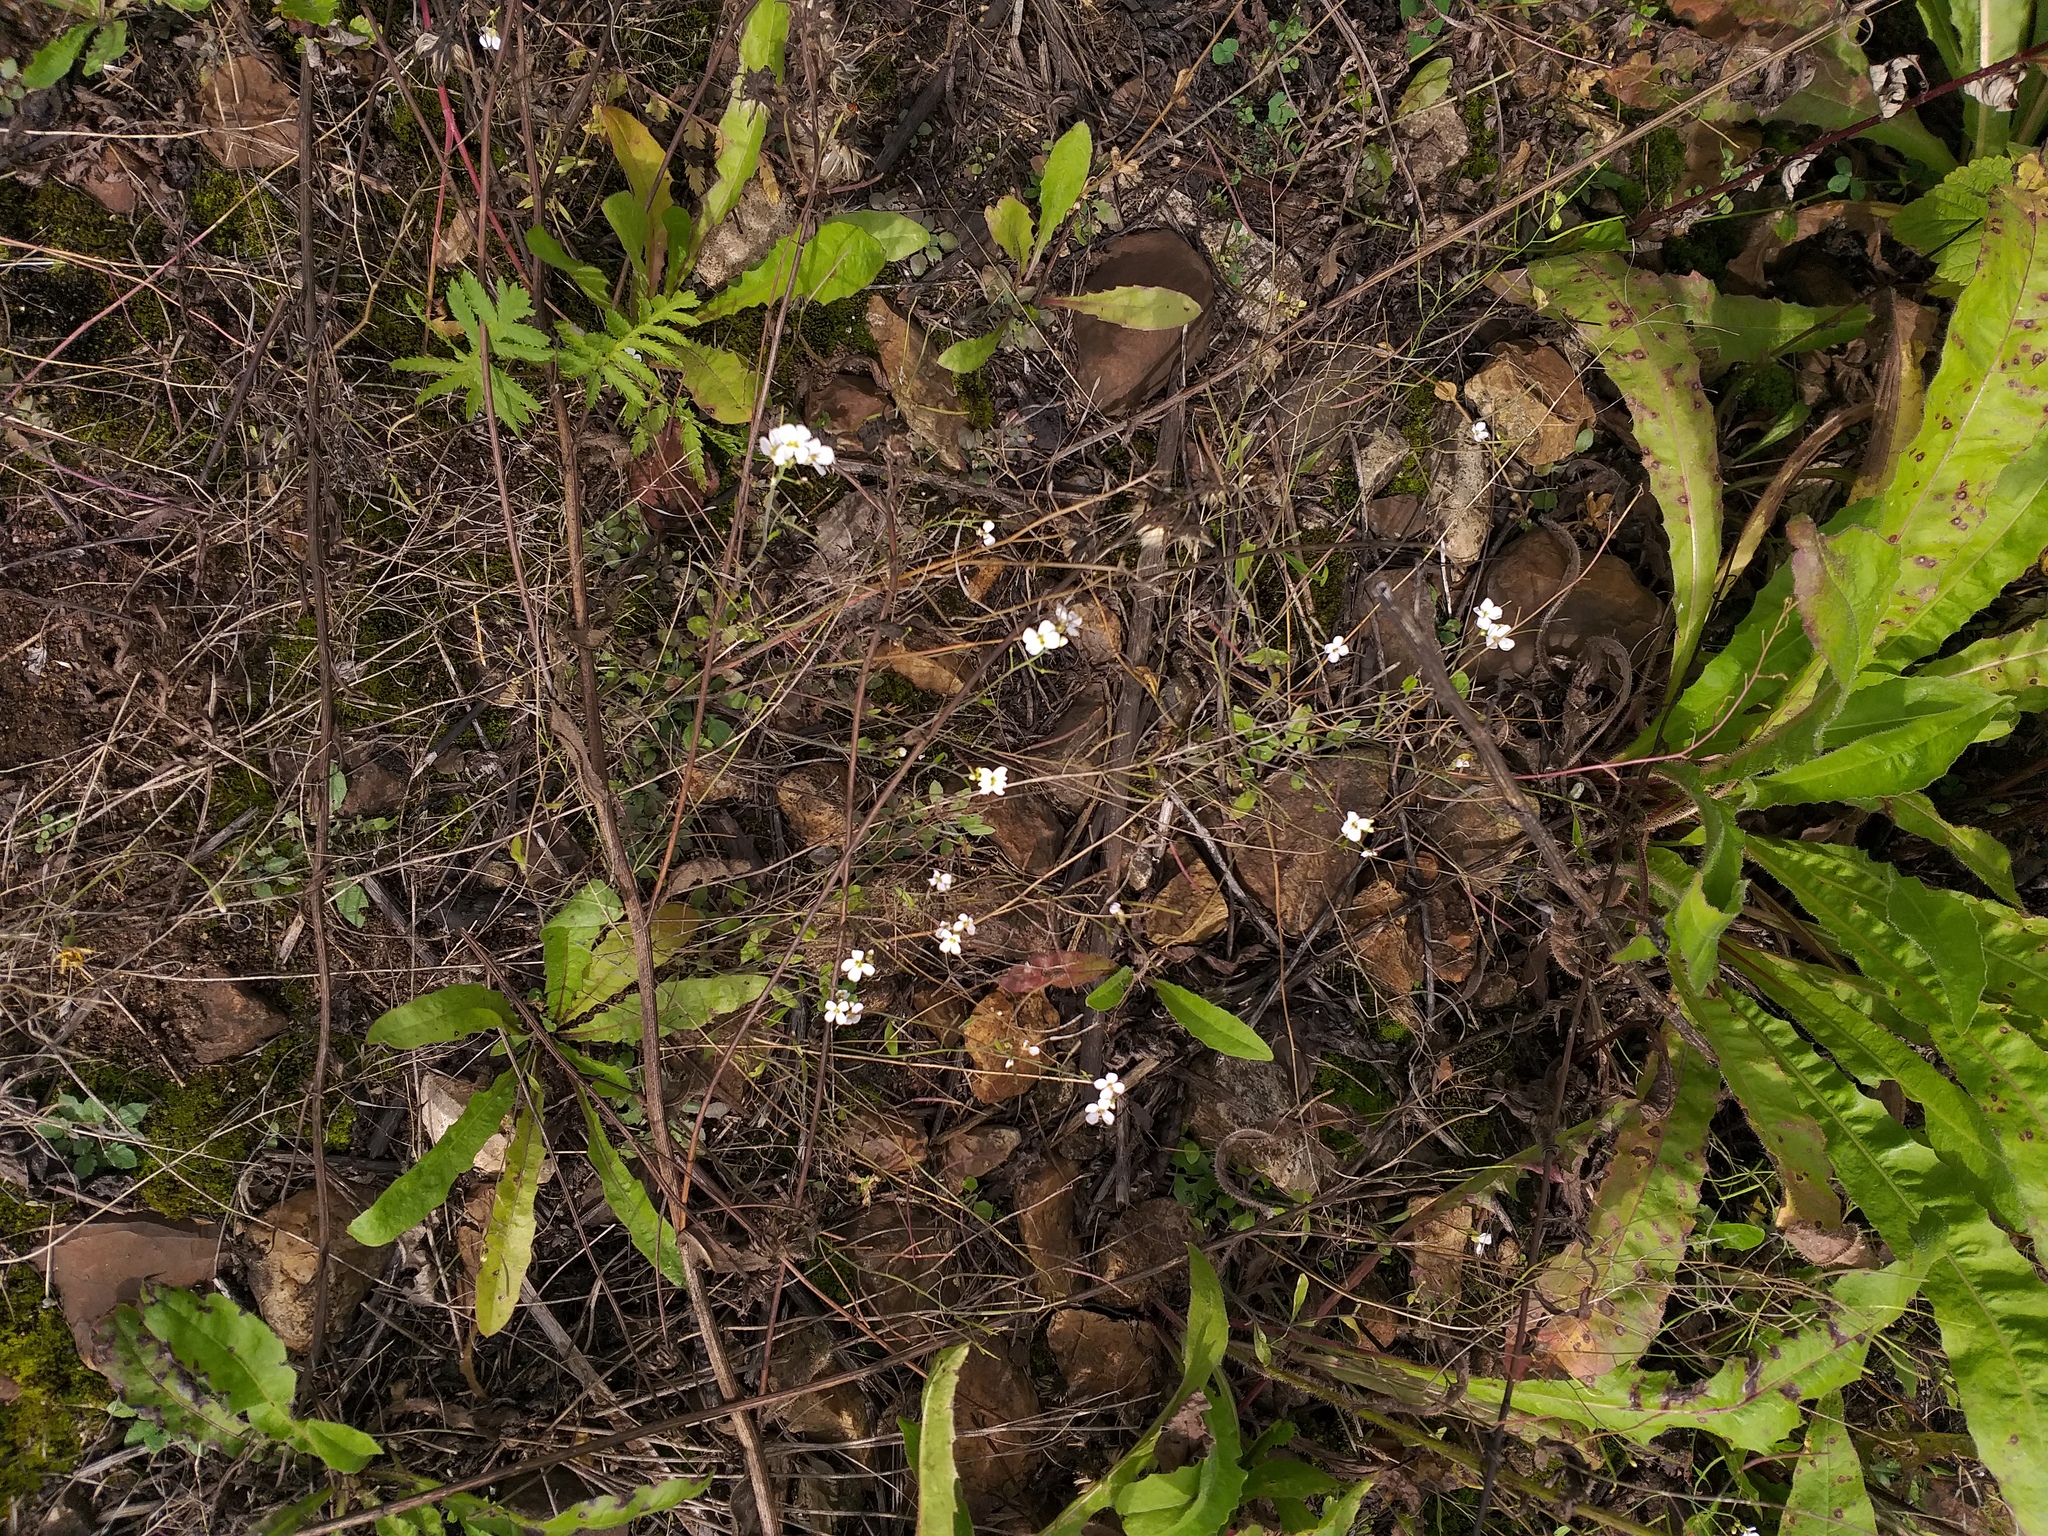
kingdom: Plantae
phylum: Tracheophyta
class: Magnoliopsida
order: Brassicales
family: Brassicaceae
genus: Arabidopsis
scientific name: Arabidopsis arenosa
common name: Sand rock-cress
